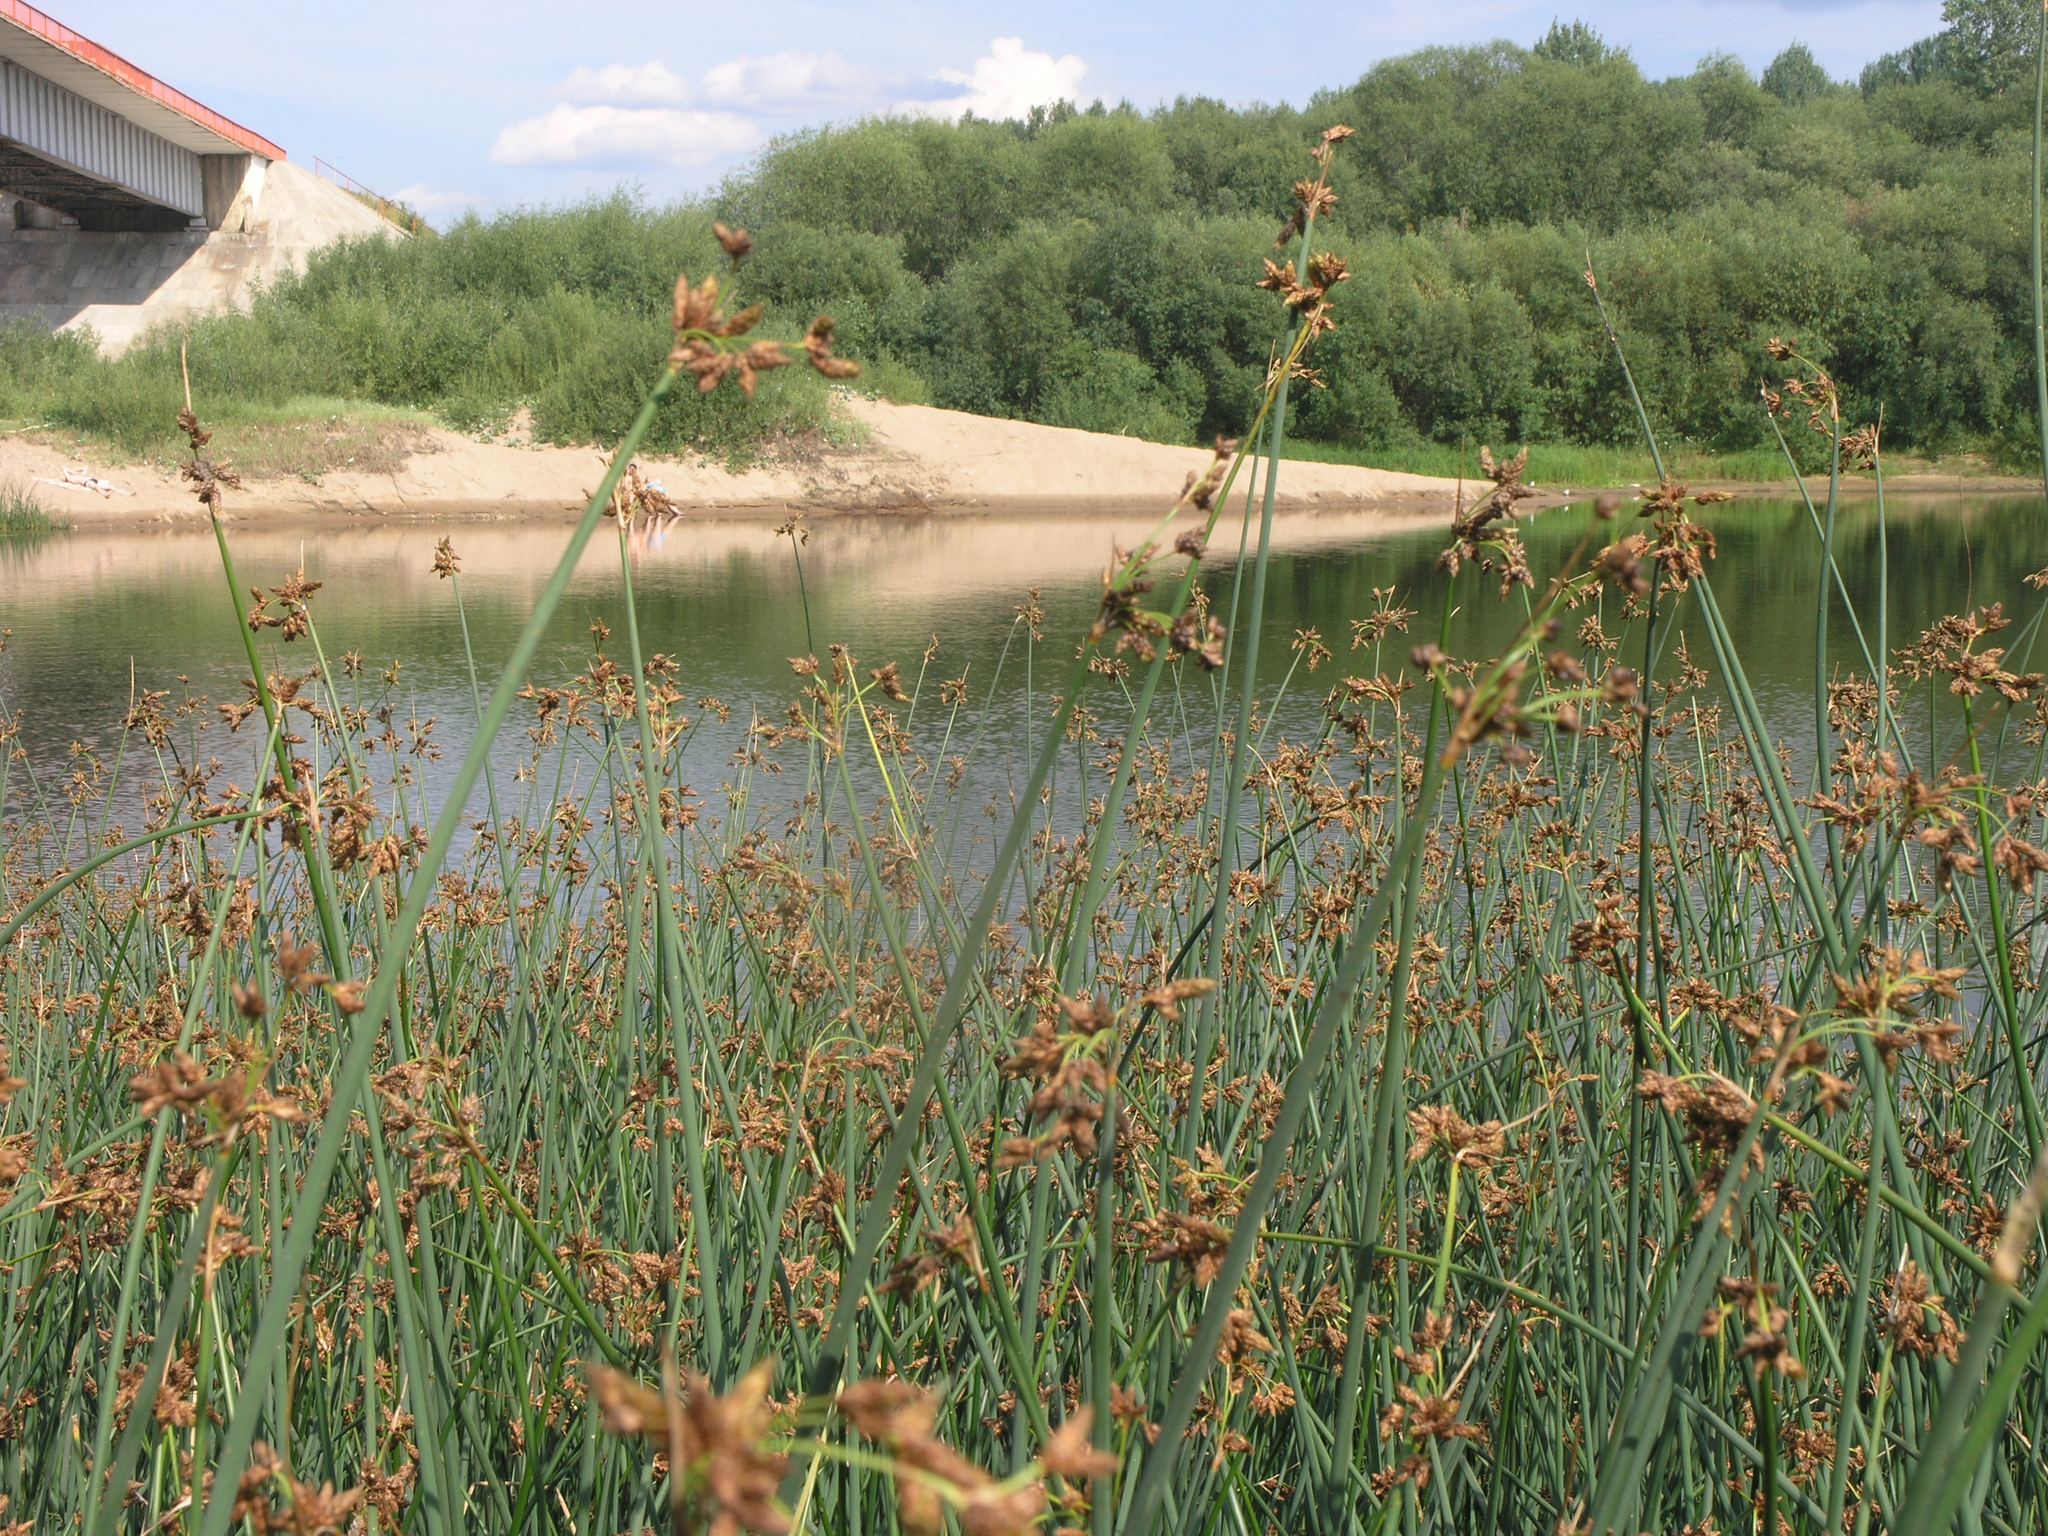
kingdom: Plantae
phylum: Tracheophyta
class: Liliopsida
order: Poales
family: Cyperaceae
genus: Schoenoplectus
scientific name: Schoenoplectus lacustris
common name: Common club-rush
